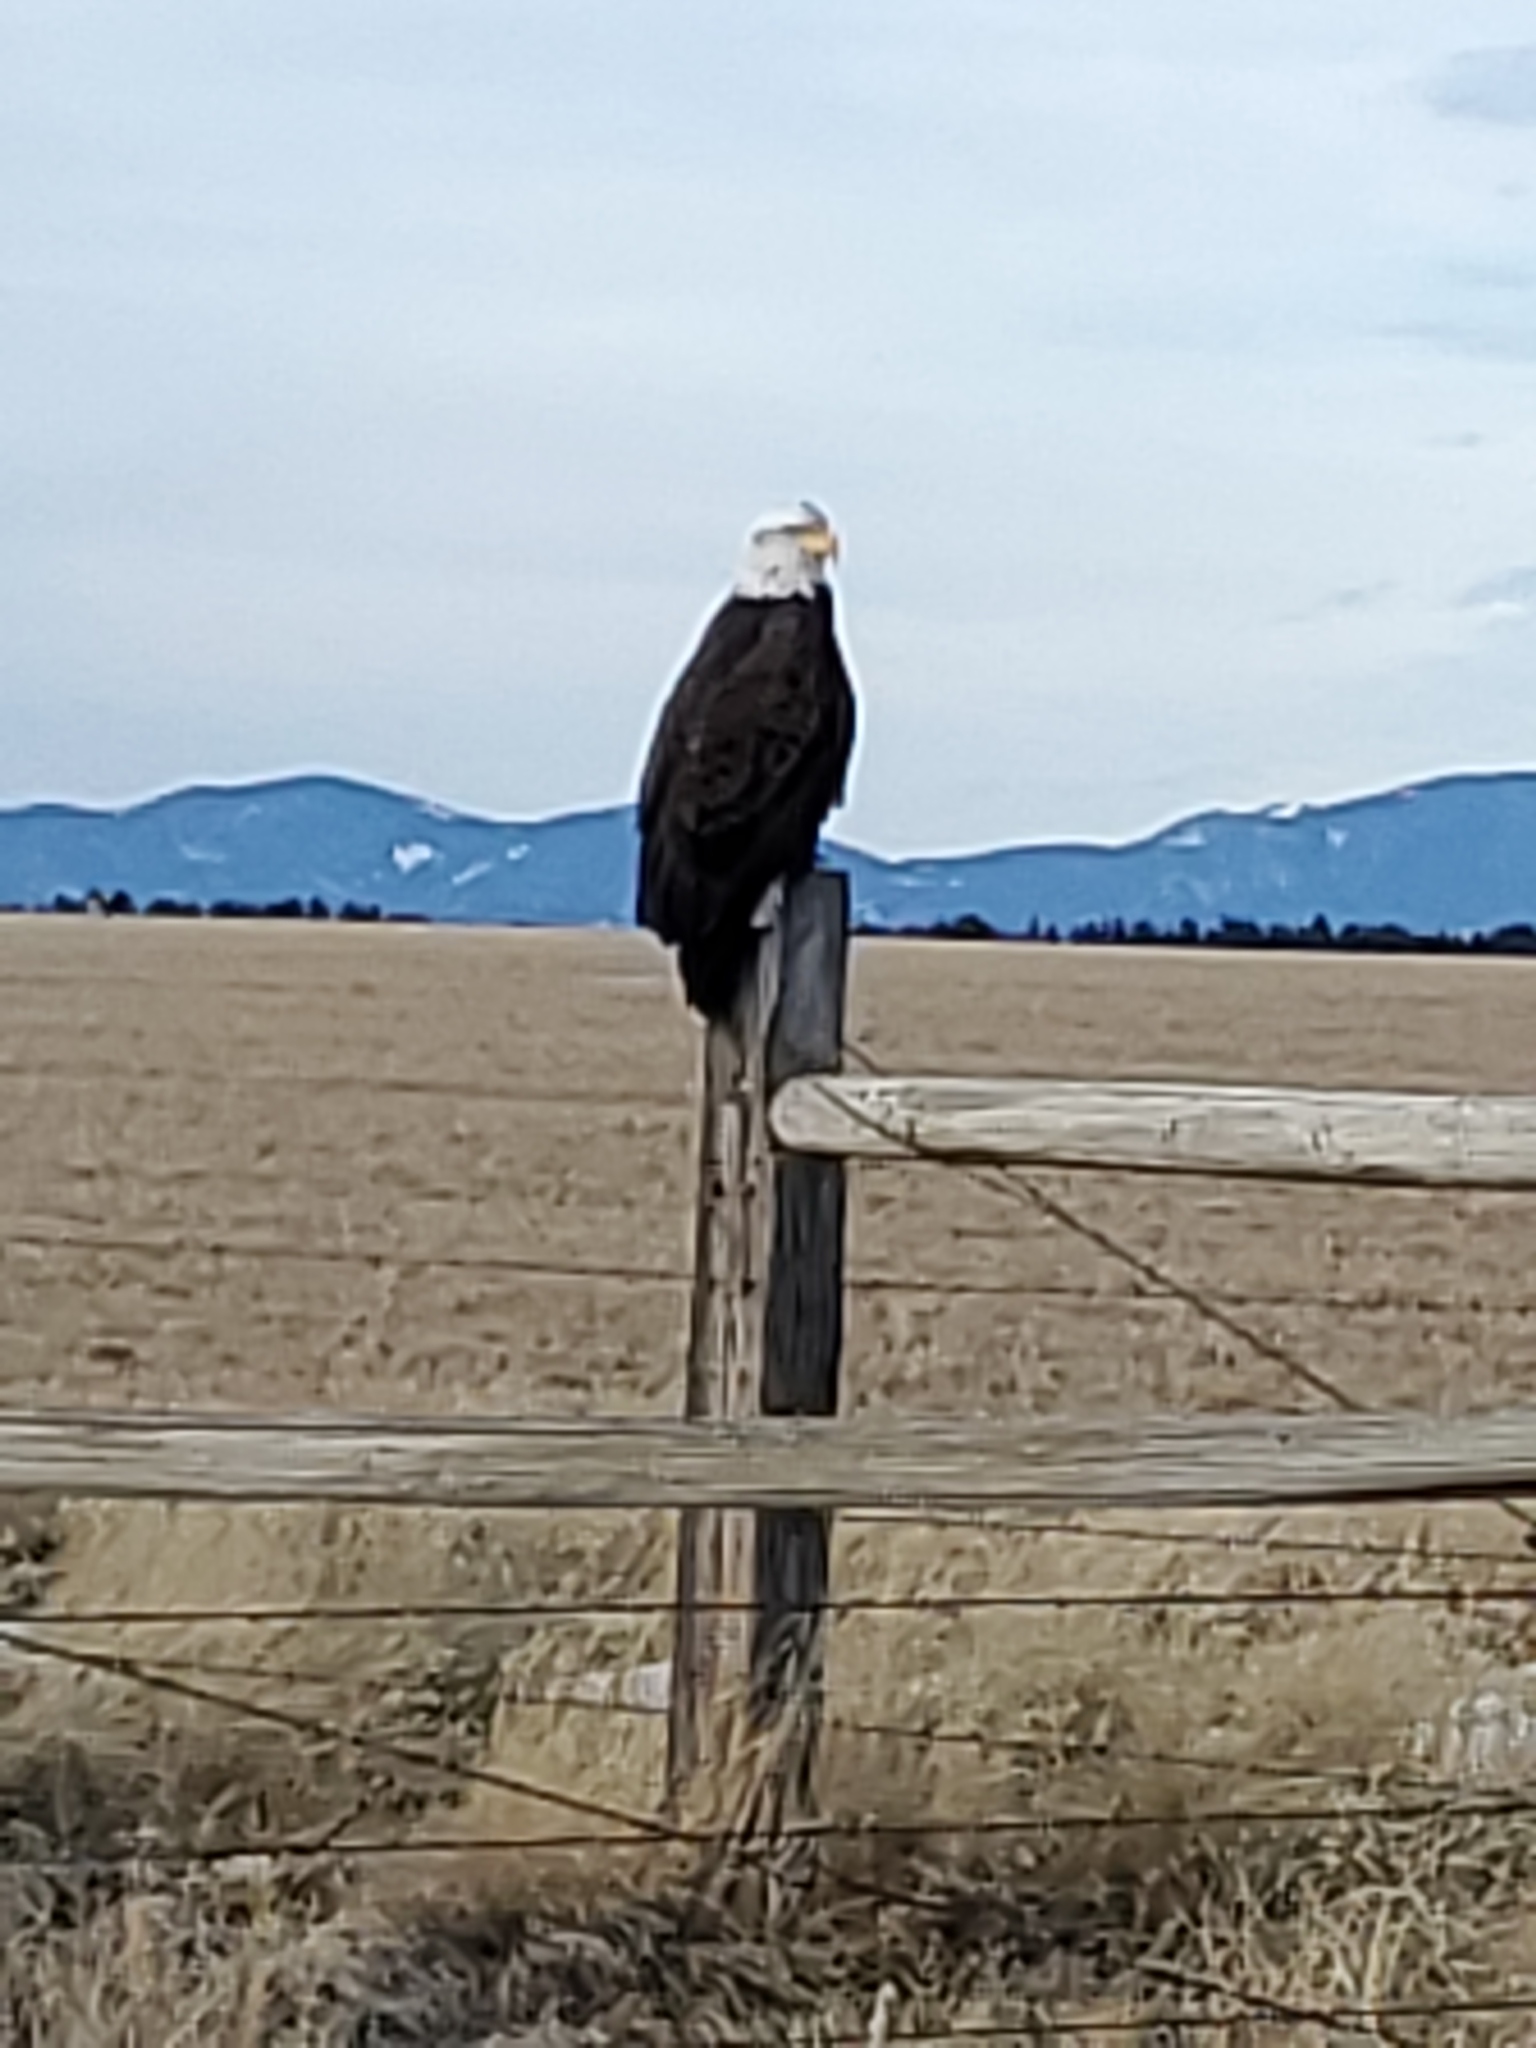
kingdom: Animalia
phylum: Chordata
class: Aves
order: Accipitriformes
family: Accipitridae
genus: Haliaeetus
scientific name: Haliaeetus leucocephalus
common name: Bald eagle
